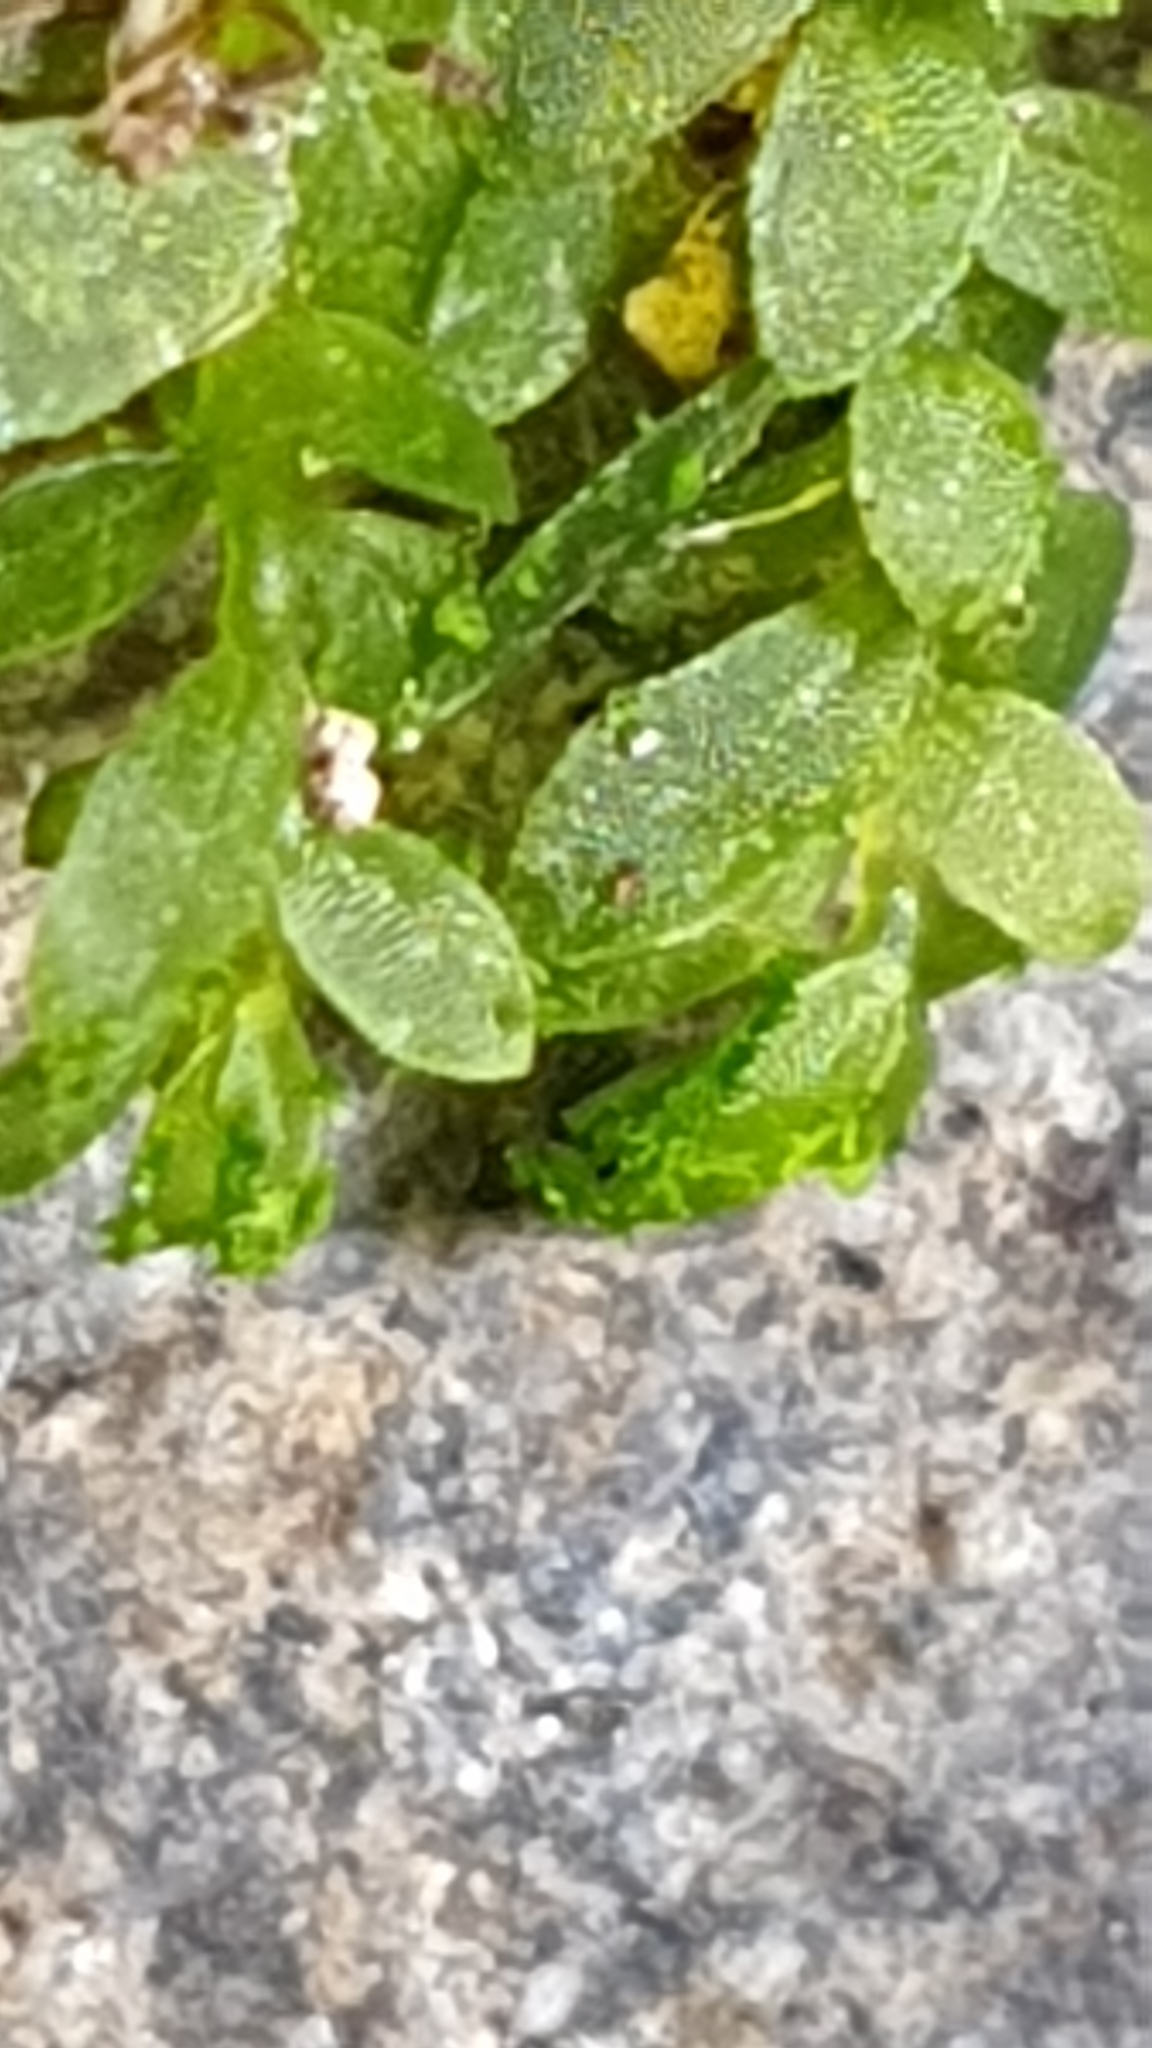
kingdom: Plantae
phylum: Bryophyta
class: Bryopsida
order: Pottiales
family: Mitteniaceae
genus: Mittenia
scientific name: Mittenia plumula
